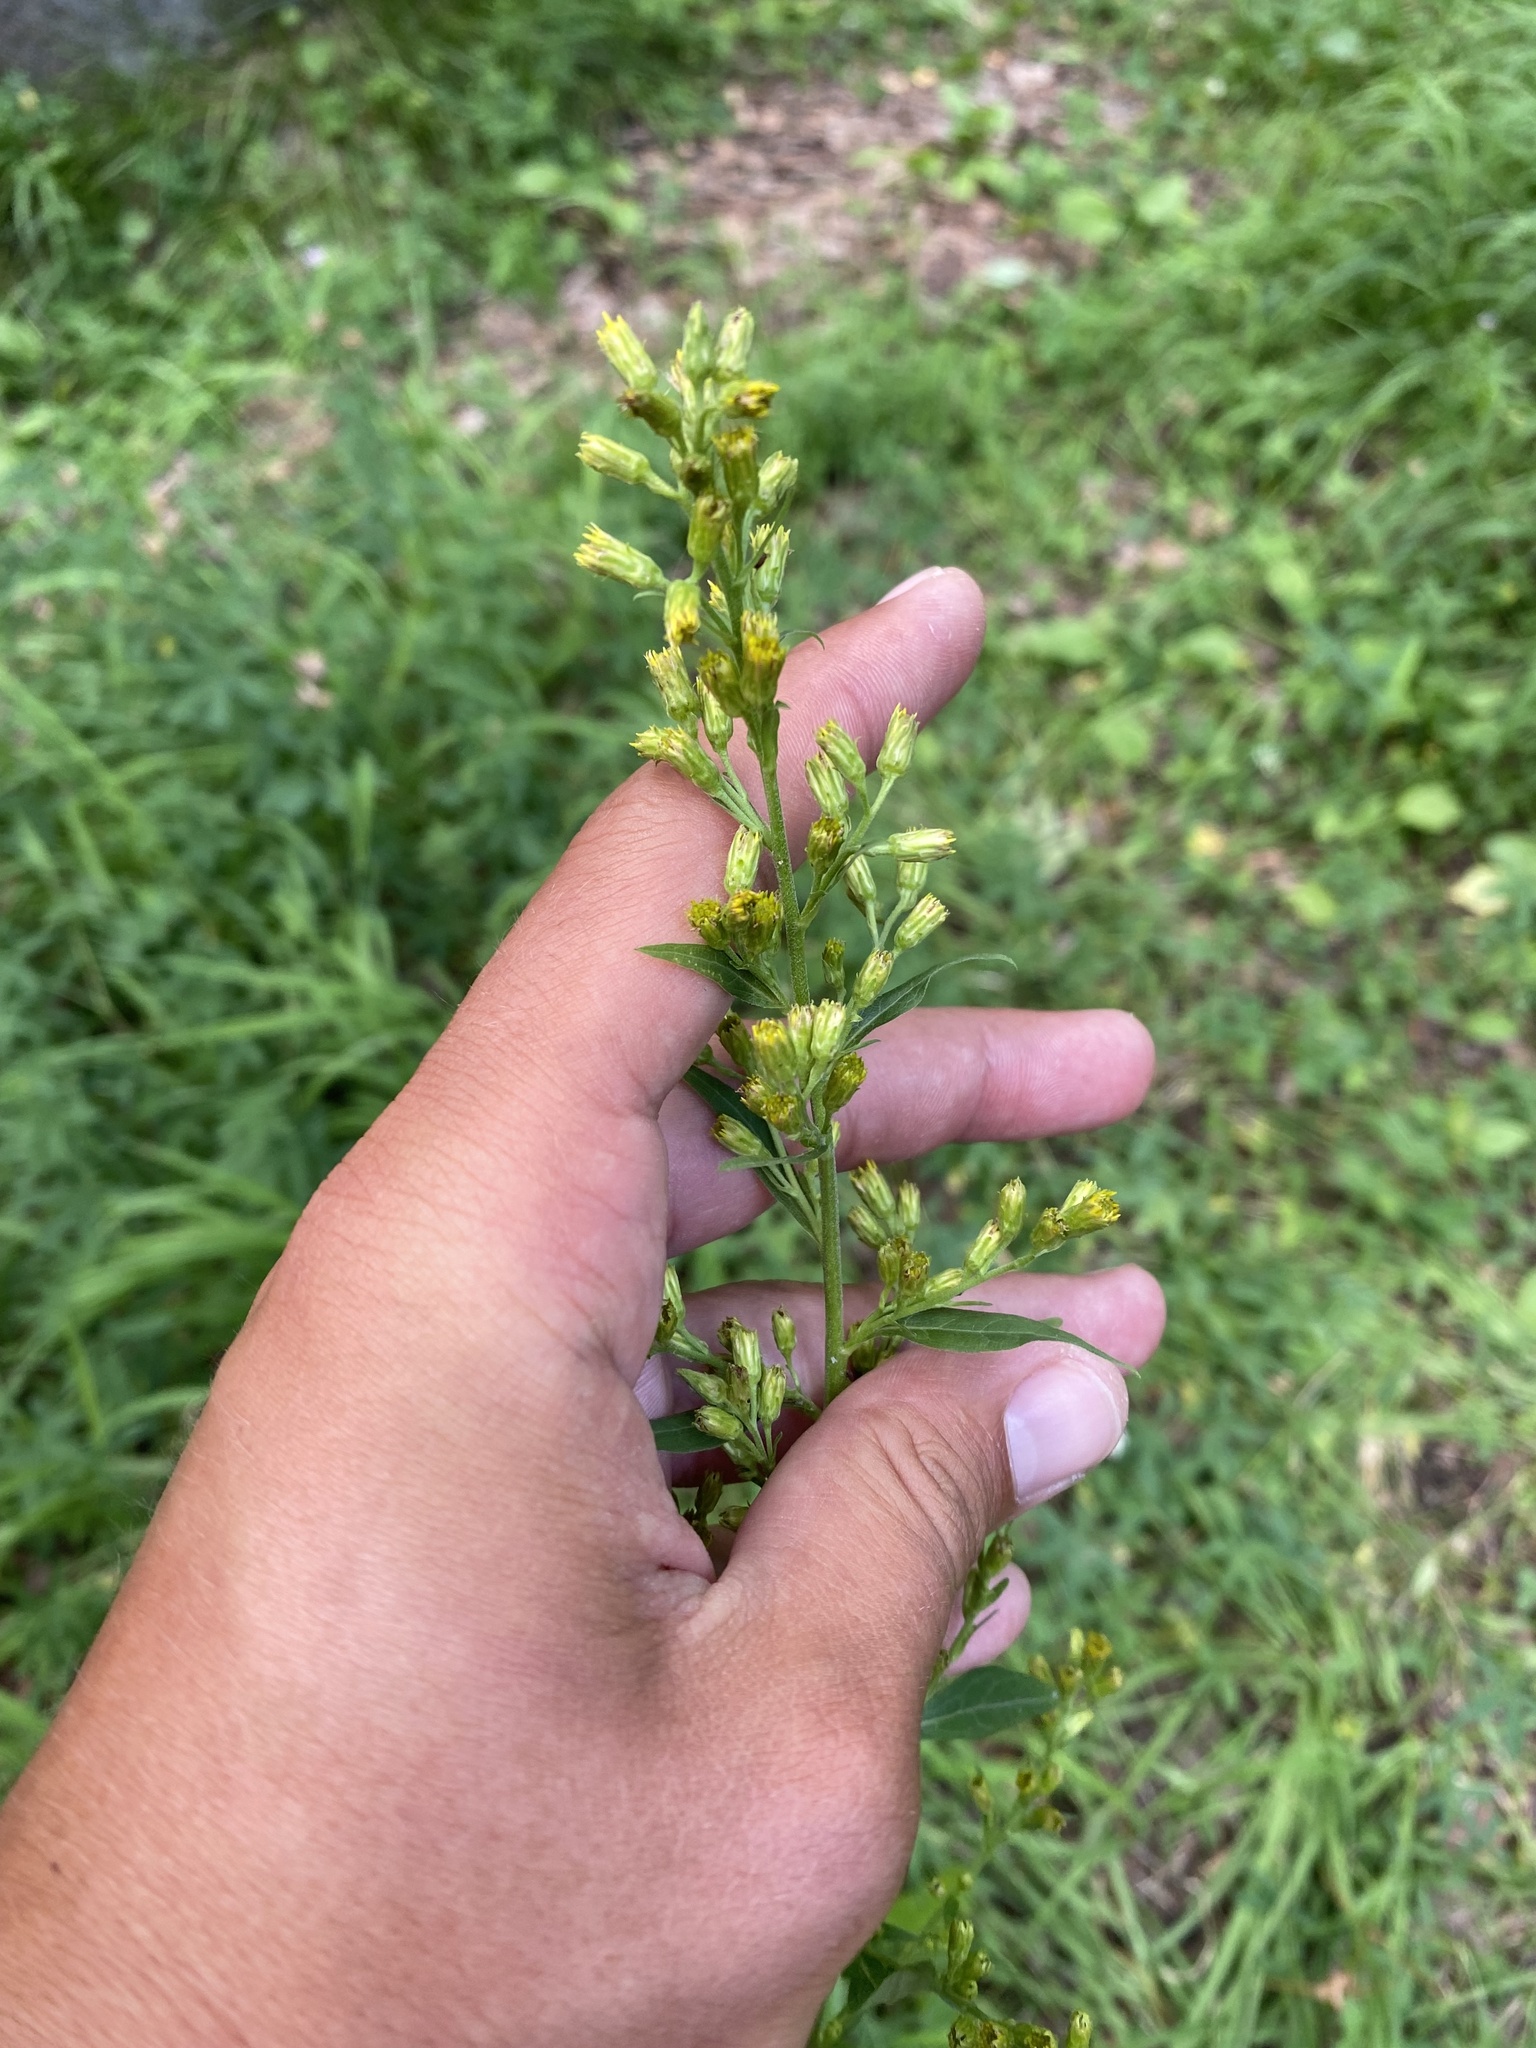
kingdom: Plantae
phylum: Tracheophyta
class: Magnoliopsida
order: Asterales
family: Asteraceae
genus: Solidago
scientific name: Solidago virgaurea
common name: Goldenrod
